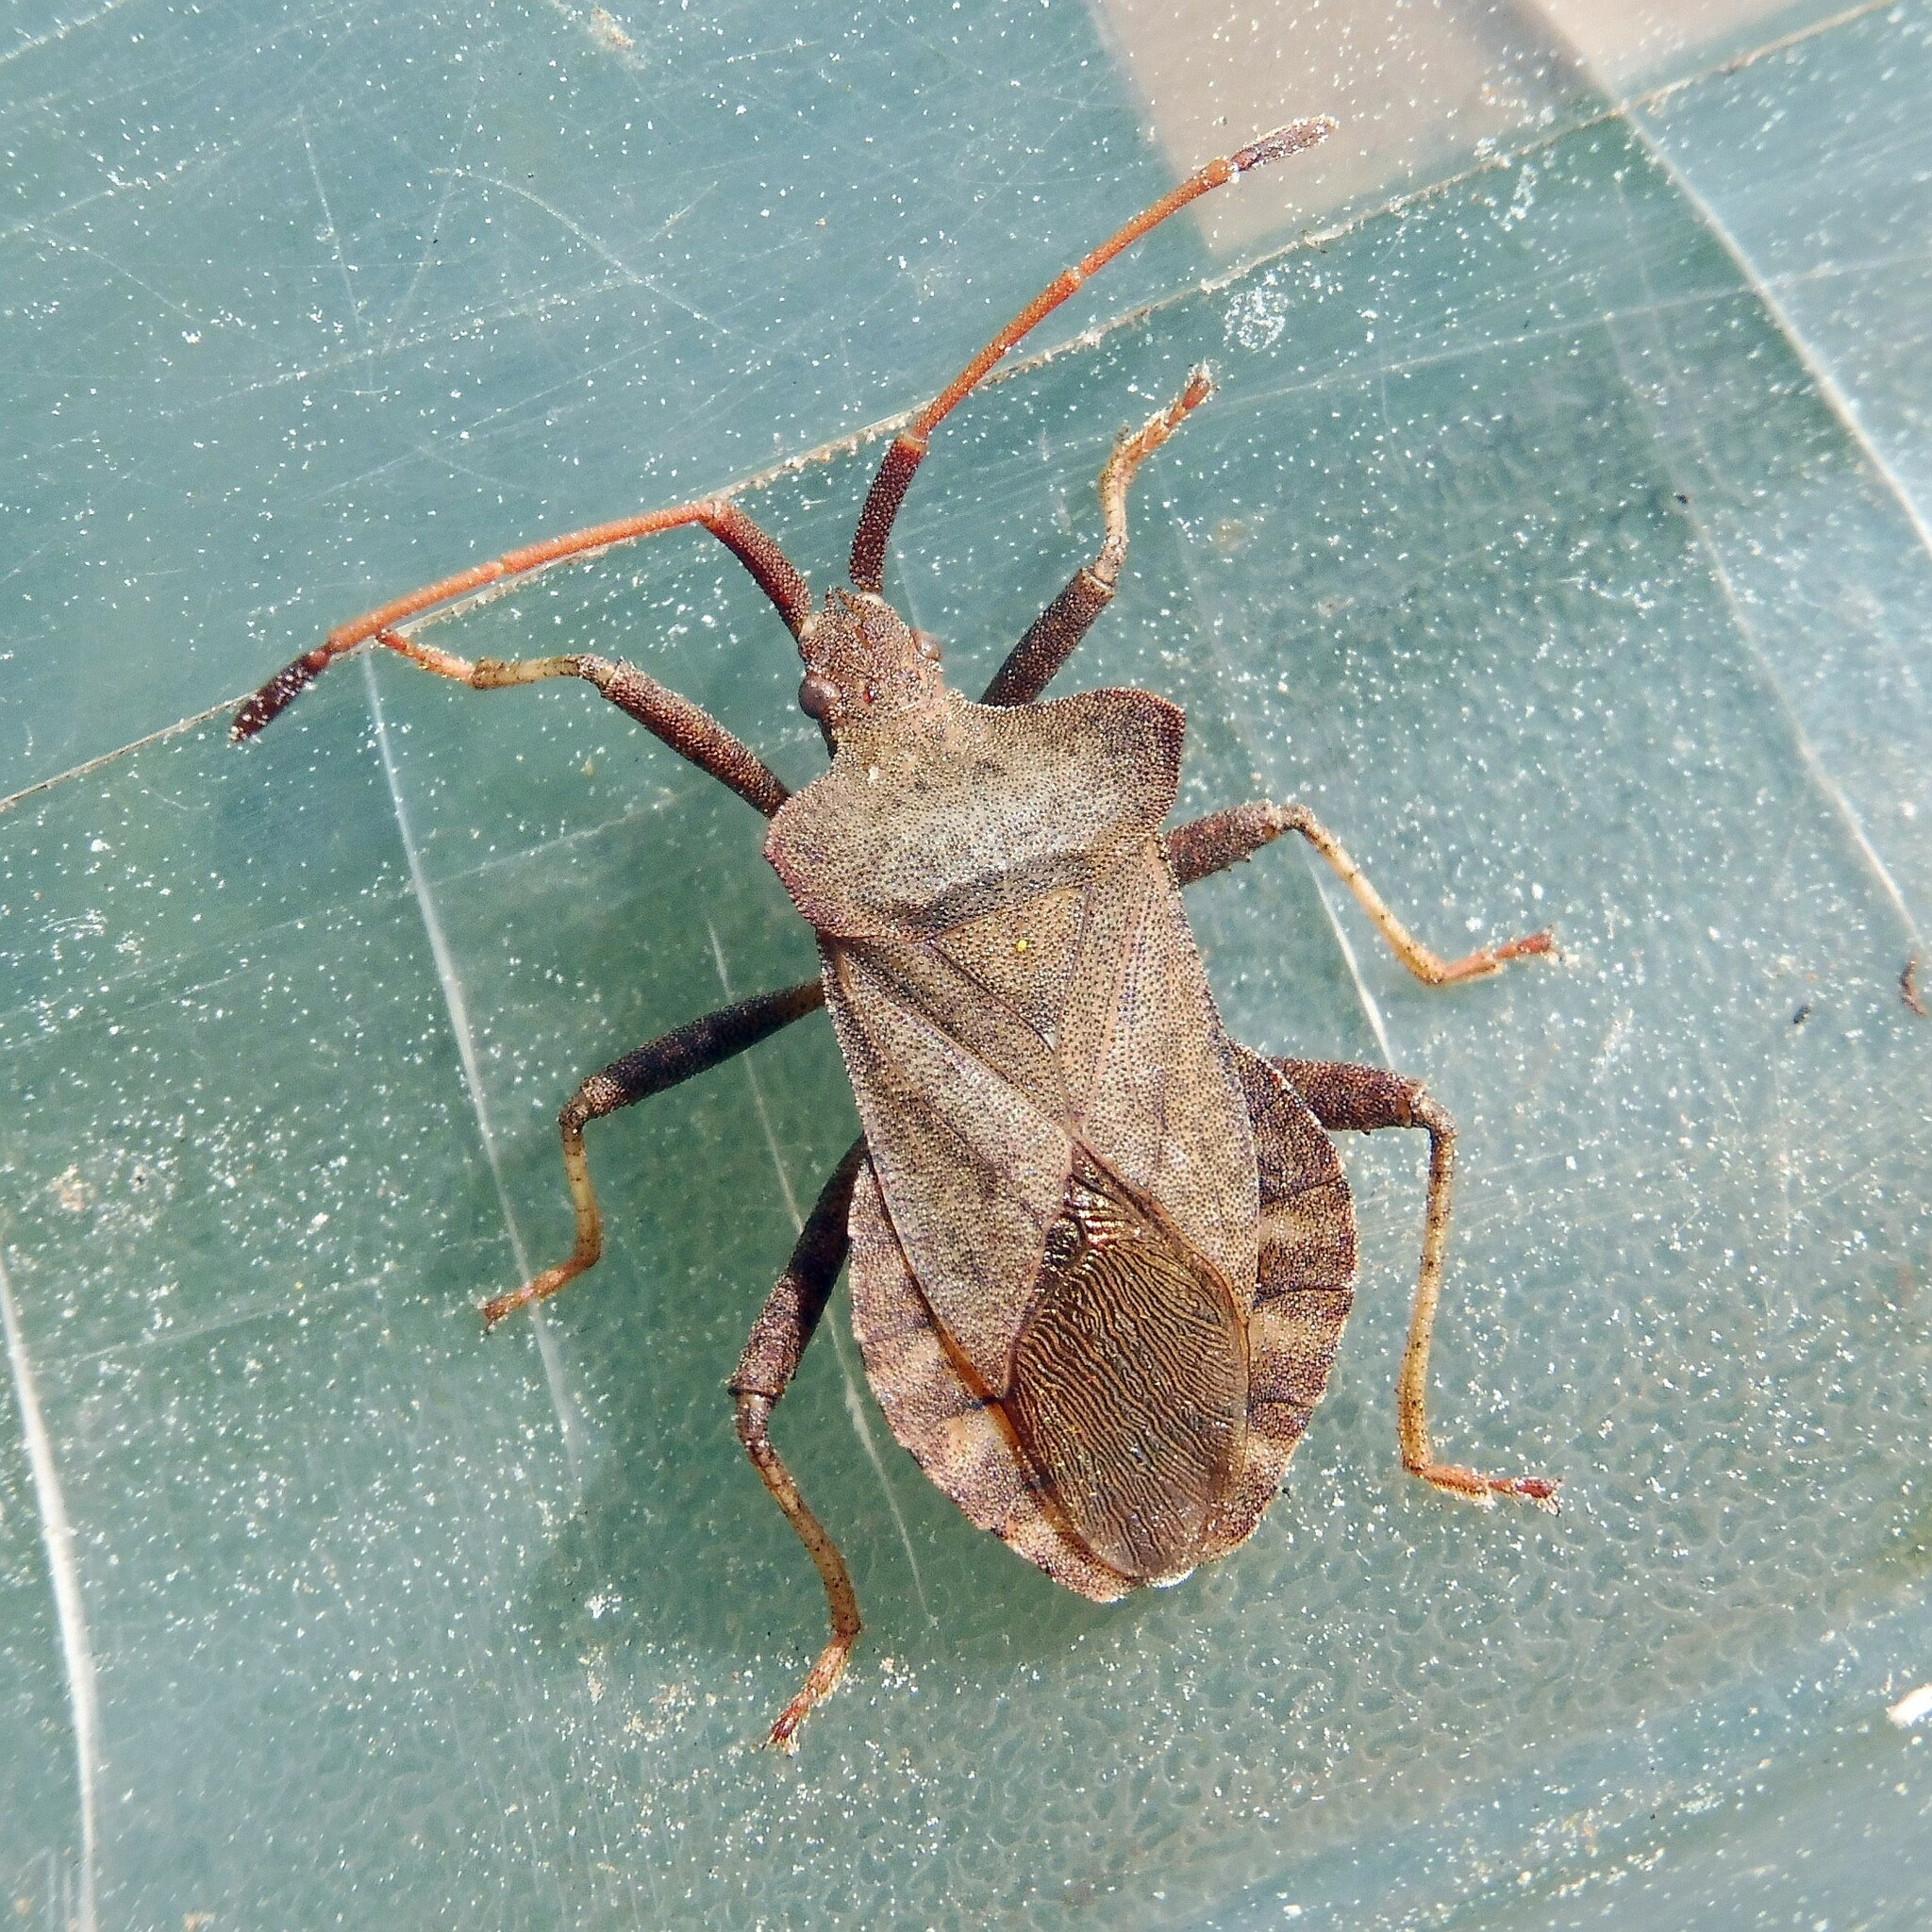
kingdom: Animalia
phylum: Arthropoda
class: Insecta
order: Hemiptera
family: Coreidae
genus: Coreus
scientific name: Coreus marginatus
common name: Dock bug
